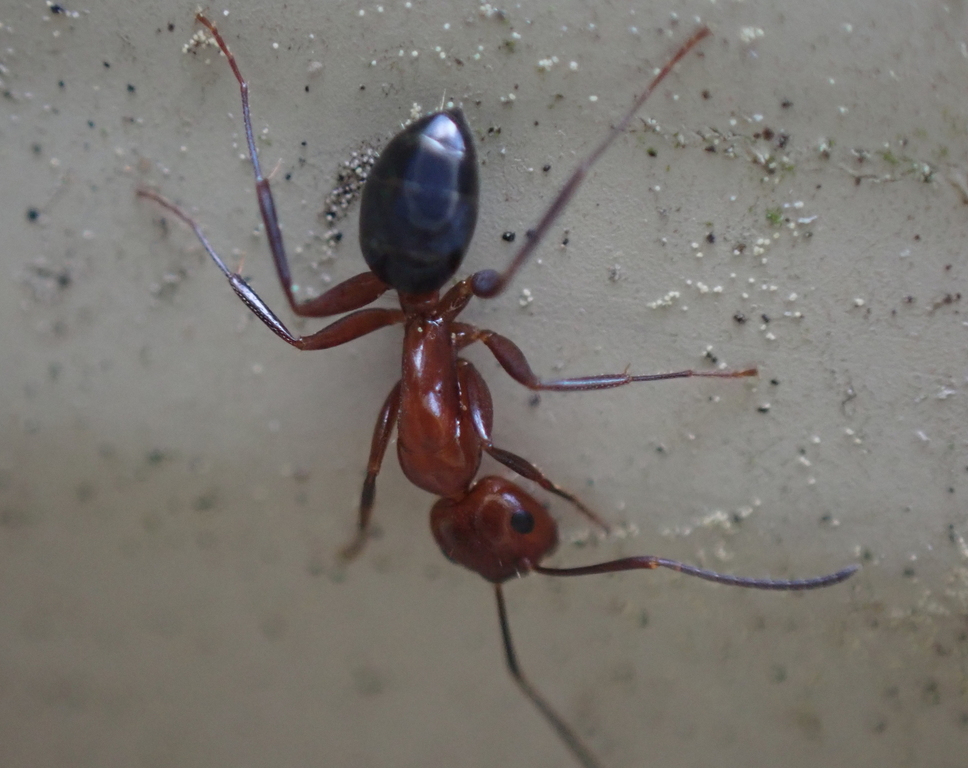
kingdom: Animalia
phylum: Arthropoda
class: Insecta
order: Hymenoptera
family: Formicidae
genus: Camponotus
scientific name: Camponotus decipiens
